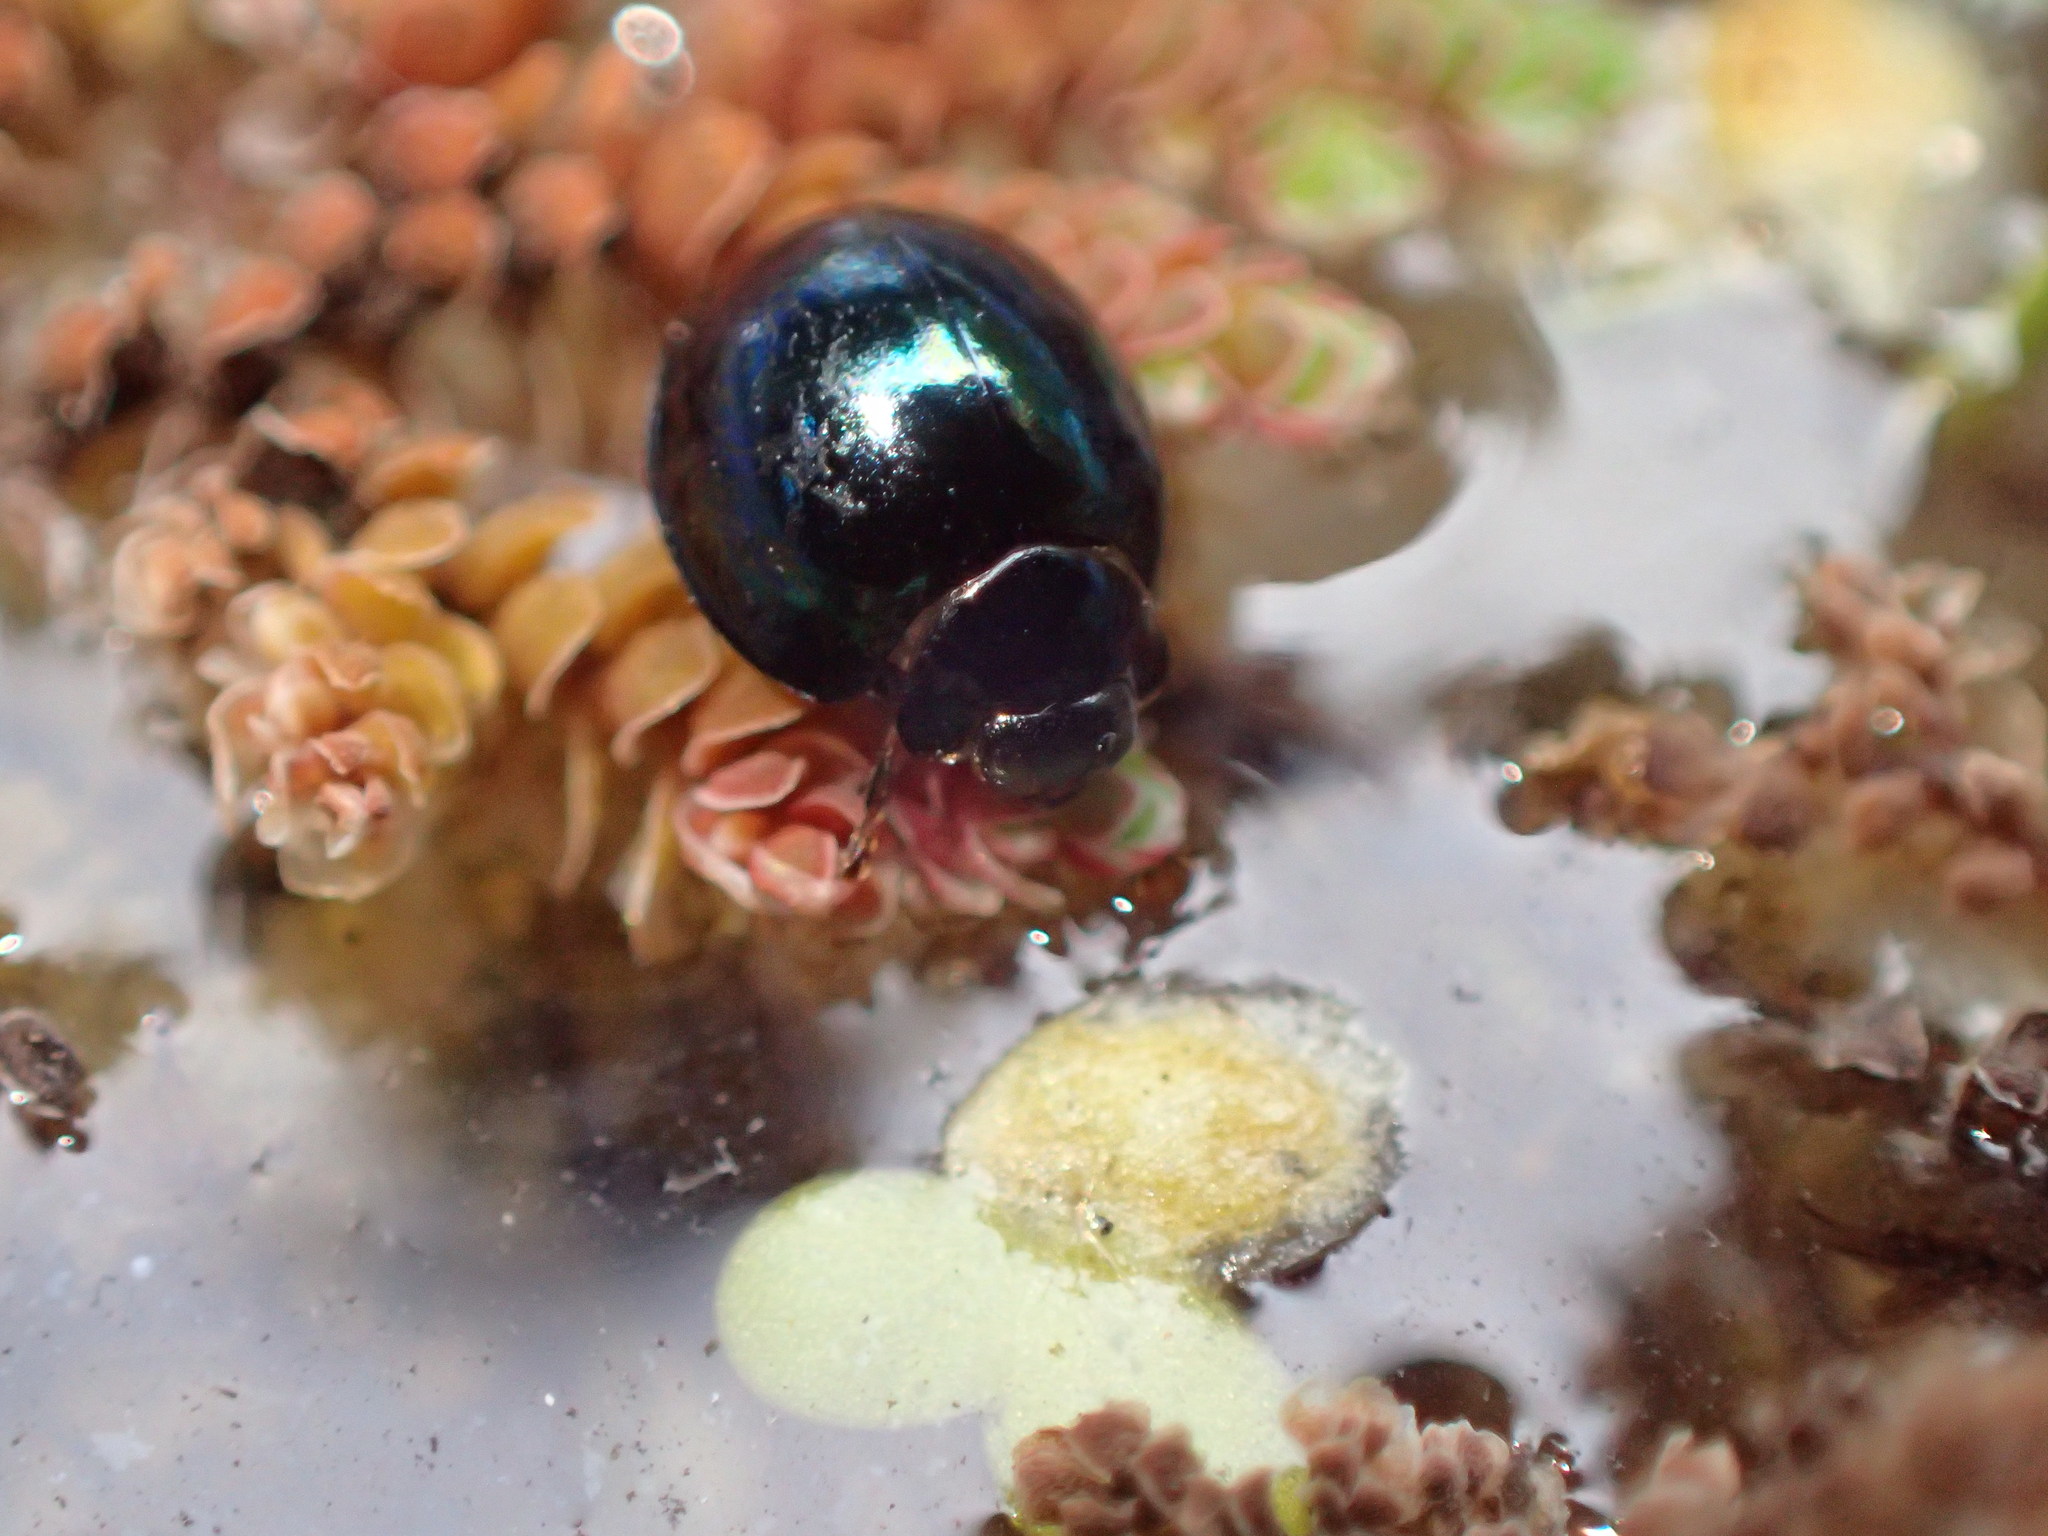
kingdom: Animalia
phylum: Arthropoda
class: Insecta
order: Coleoptera
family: Coccinellidae
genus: Halmus
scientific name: Halmus chalybeus
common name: Steel blue ladybird beetle
